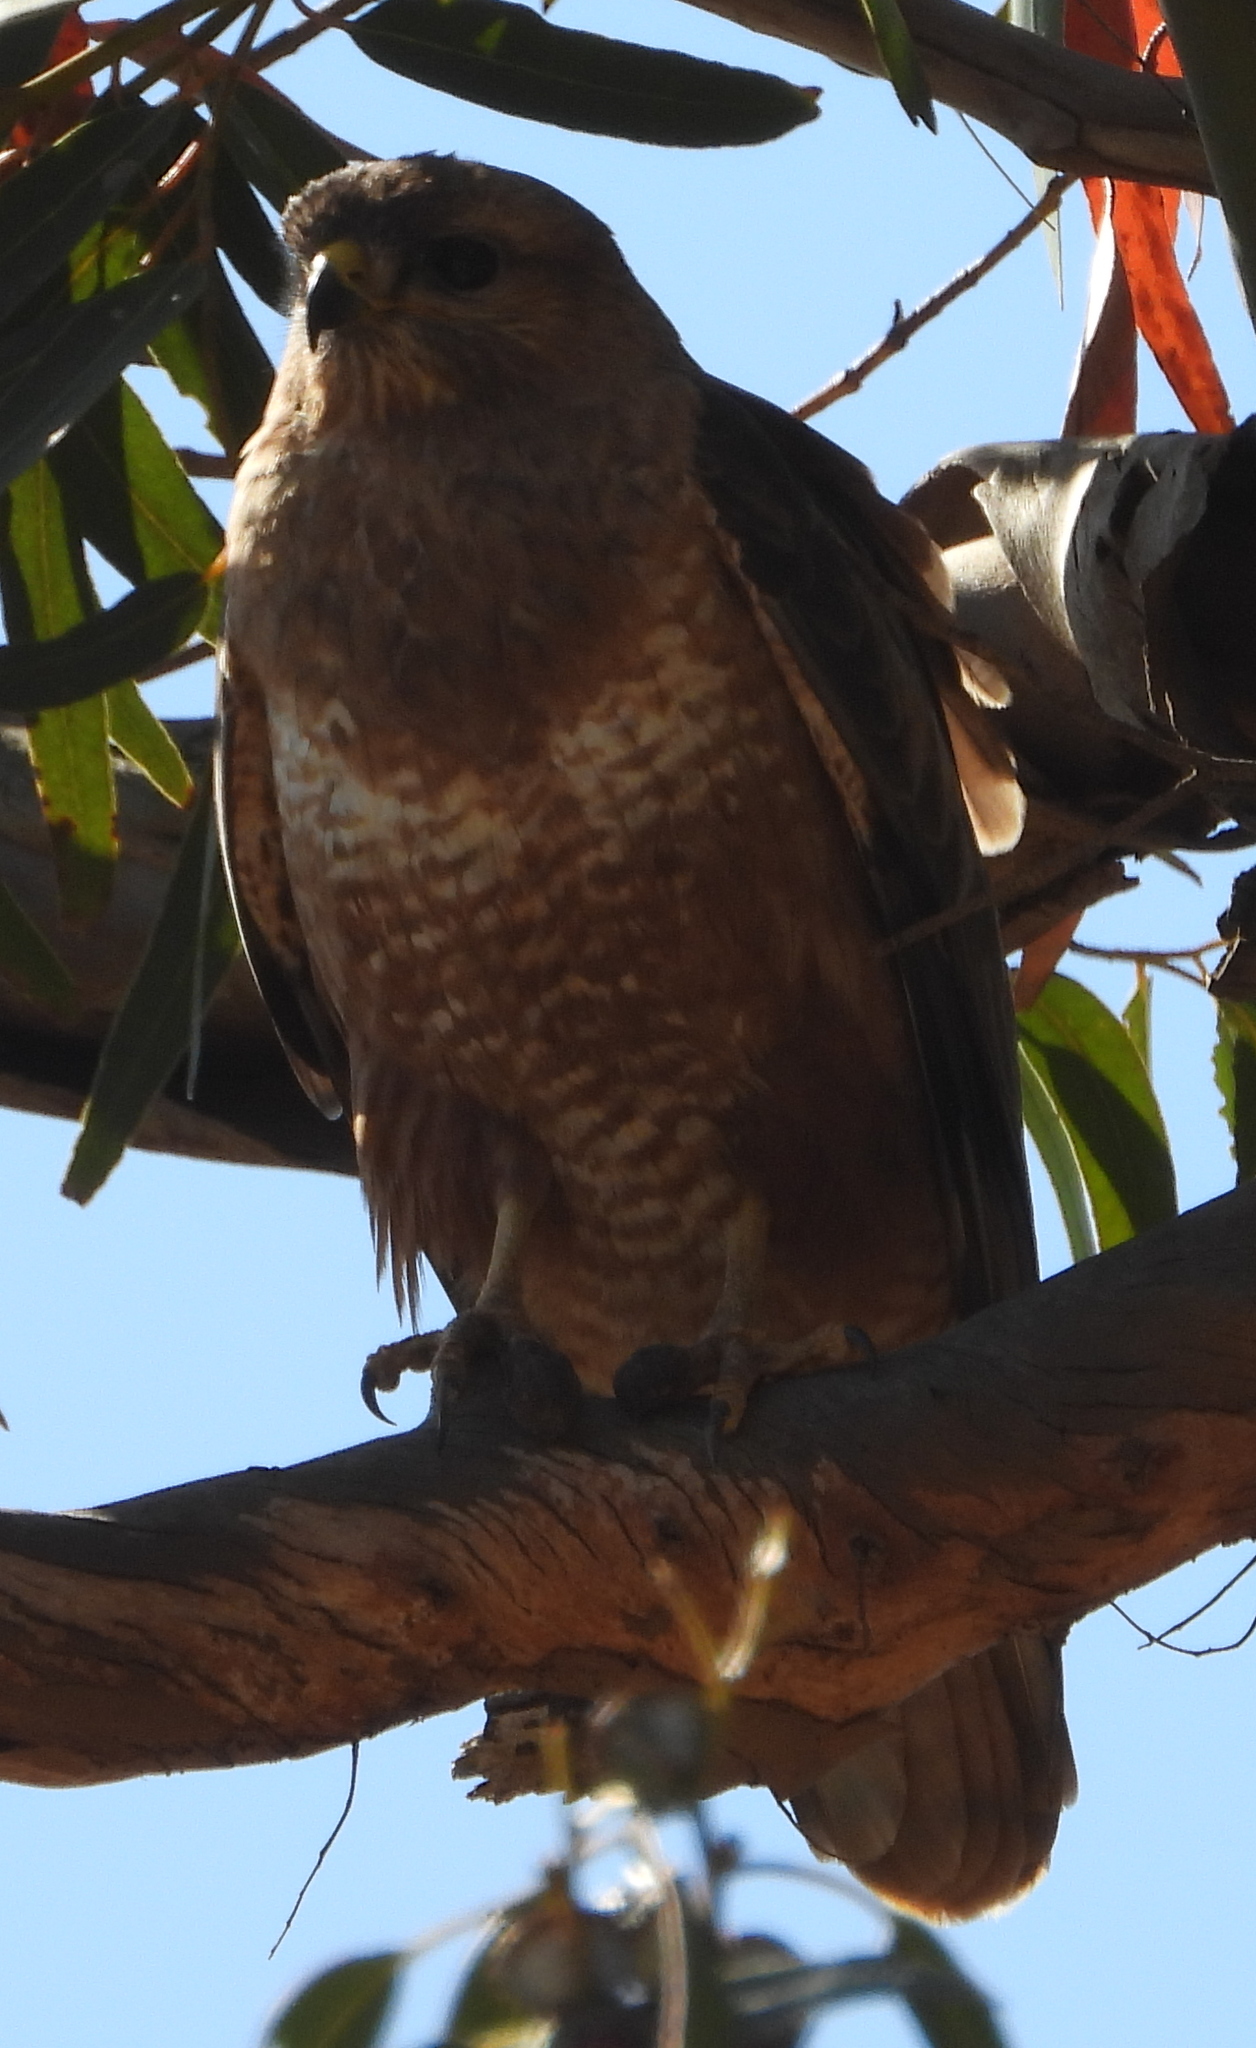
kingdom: Animalia
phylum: Chordata
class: Aves
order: Accipitriformes
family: Accipitridae
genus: Buteo
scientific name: Buteo buteo
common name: Common buzzard
